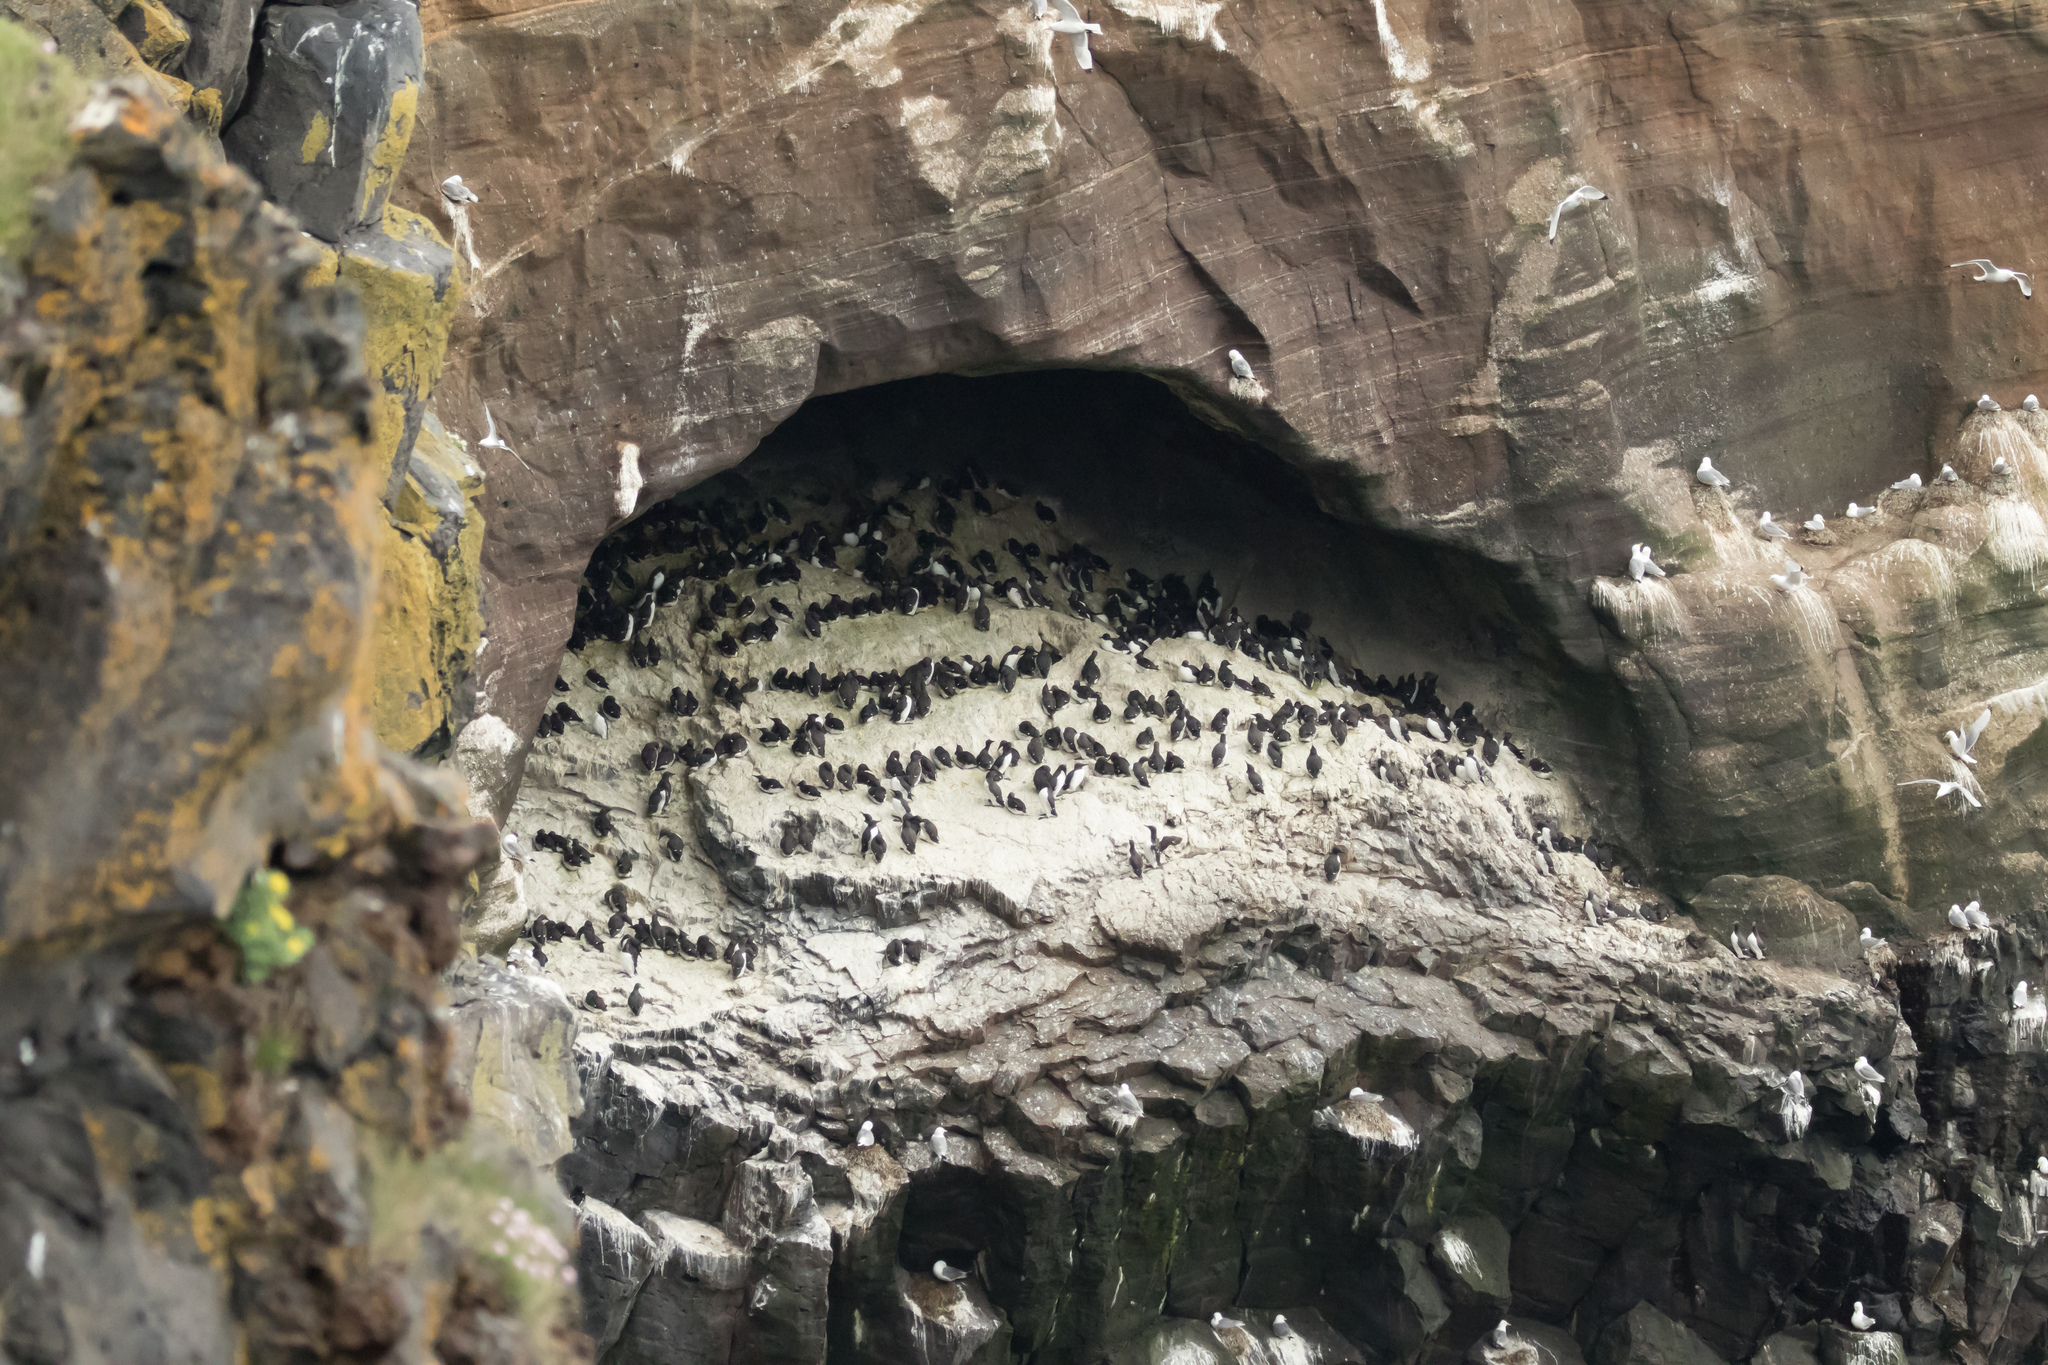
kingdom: Animalia
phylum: Chordata
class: Aves
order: Charadriiformes
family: Alcidae
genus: Uria
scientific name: Uria aalge
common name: Common murre
